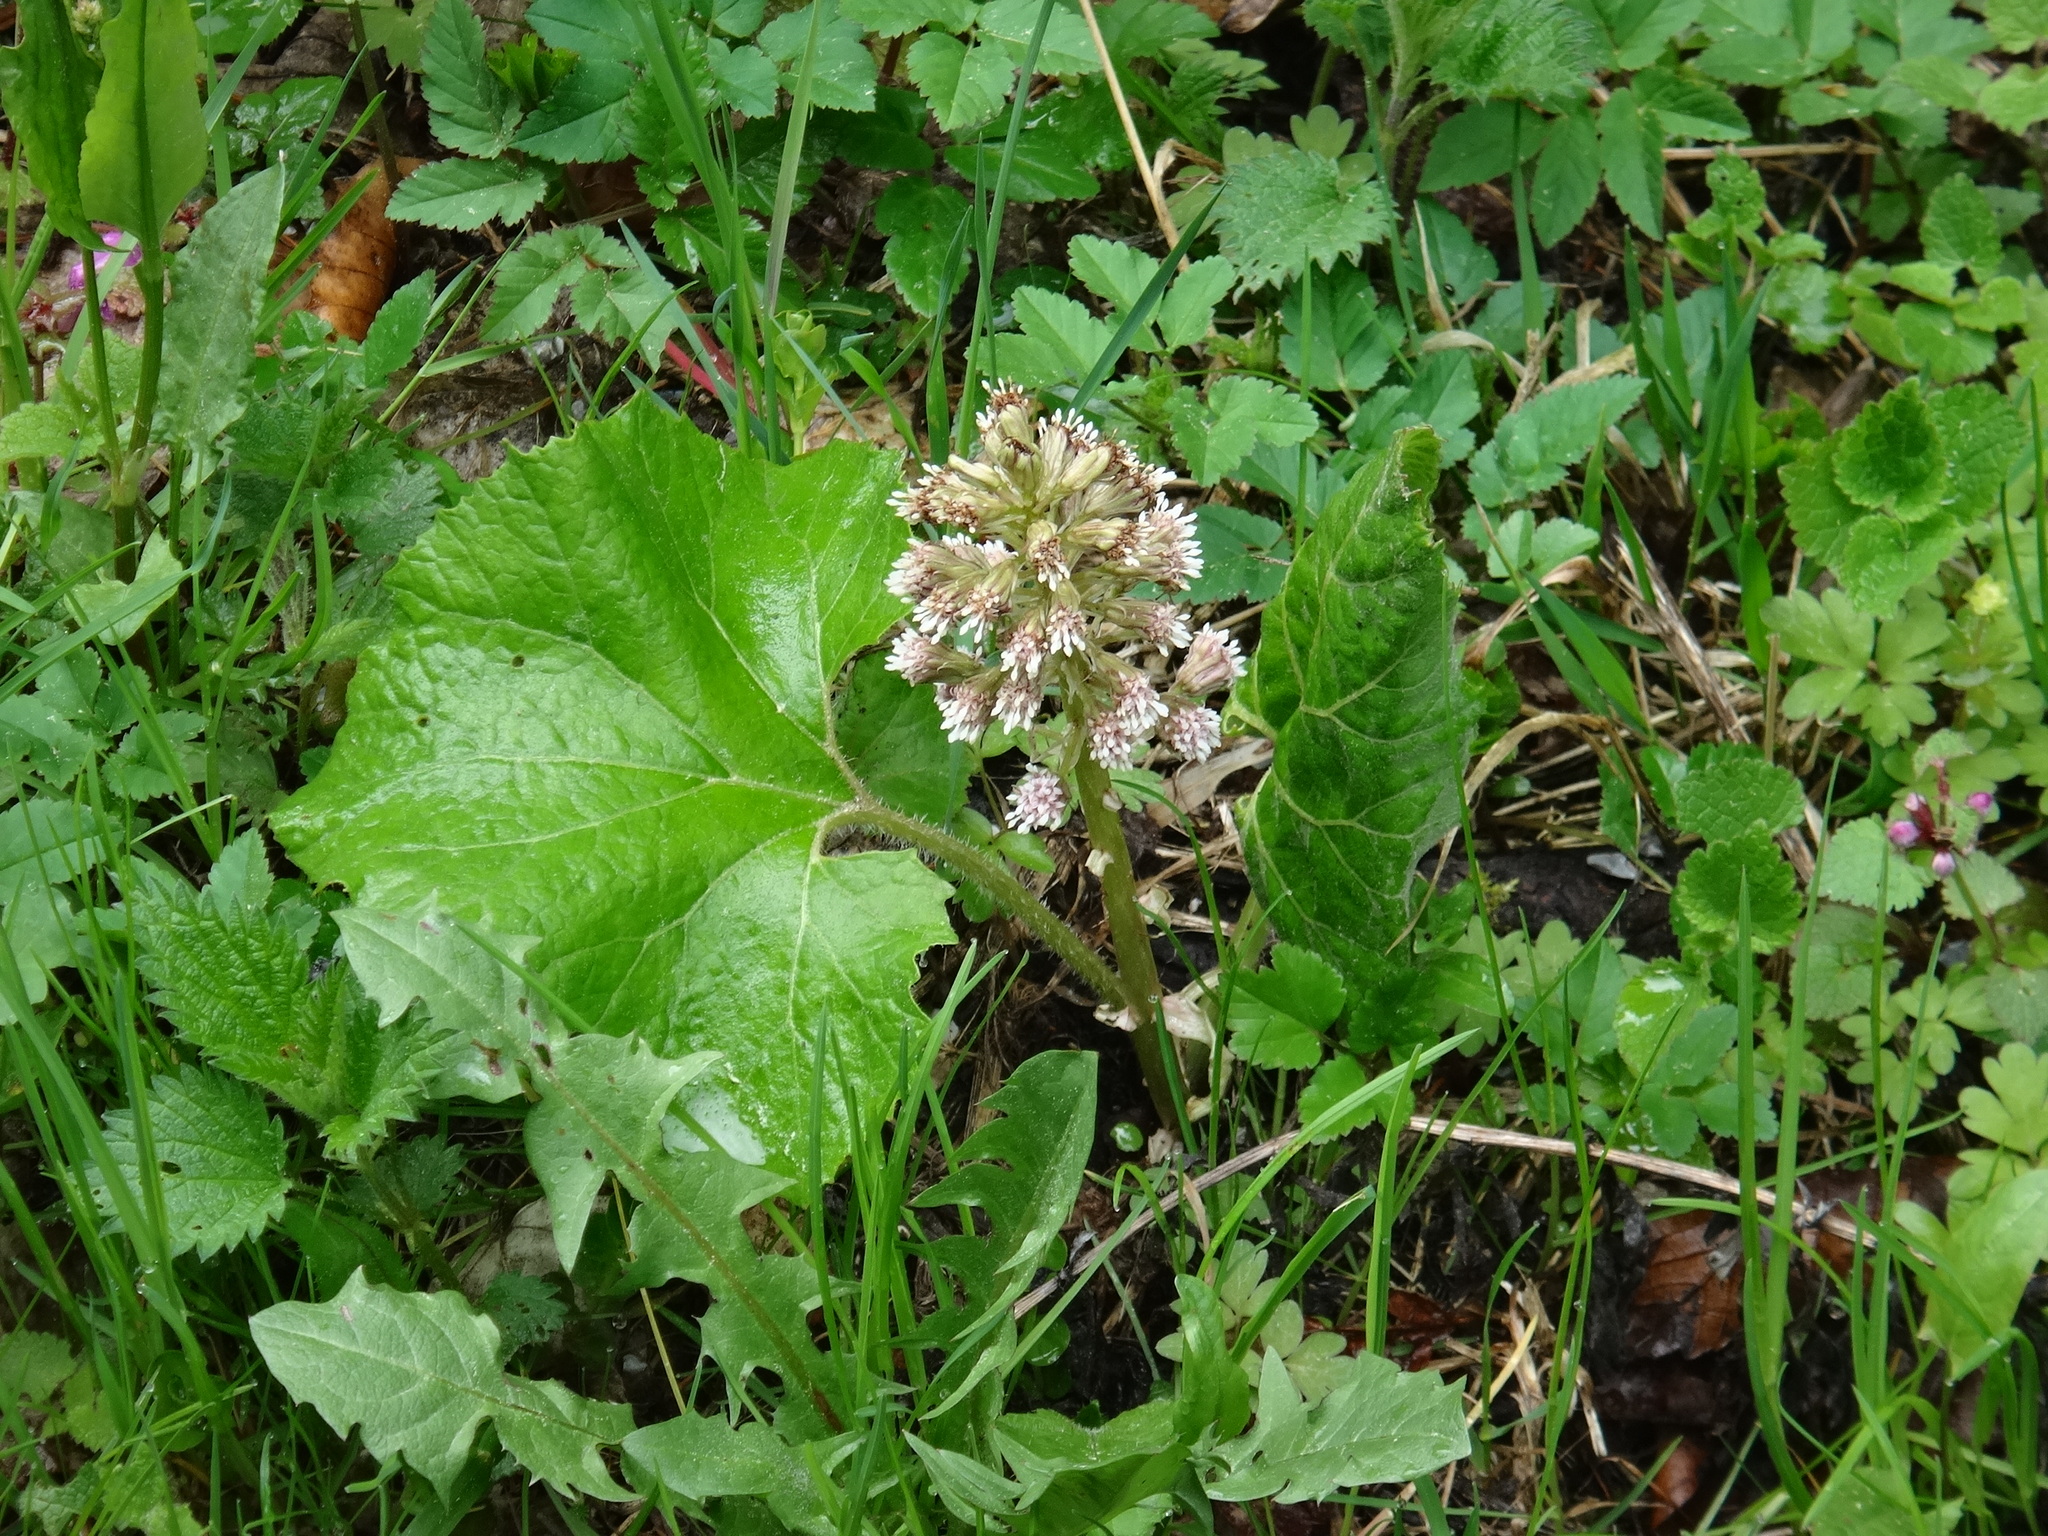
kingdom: Plantae
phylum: Tracheophyta
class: Magnoliopsida
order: Asterales
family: Asteraceae
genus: Petasites
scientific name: Petasites hybridus
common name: Butterbur
